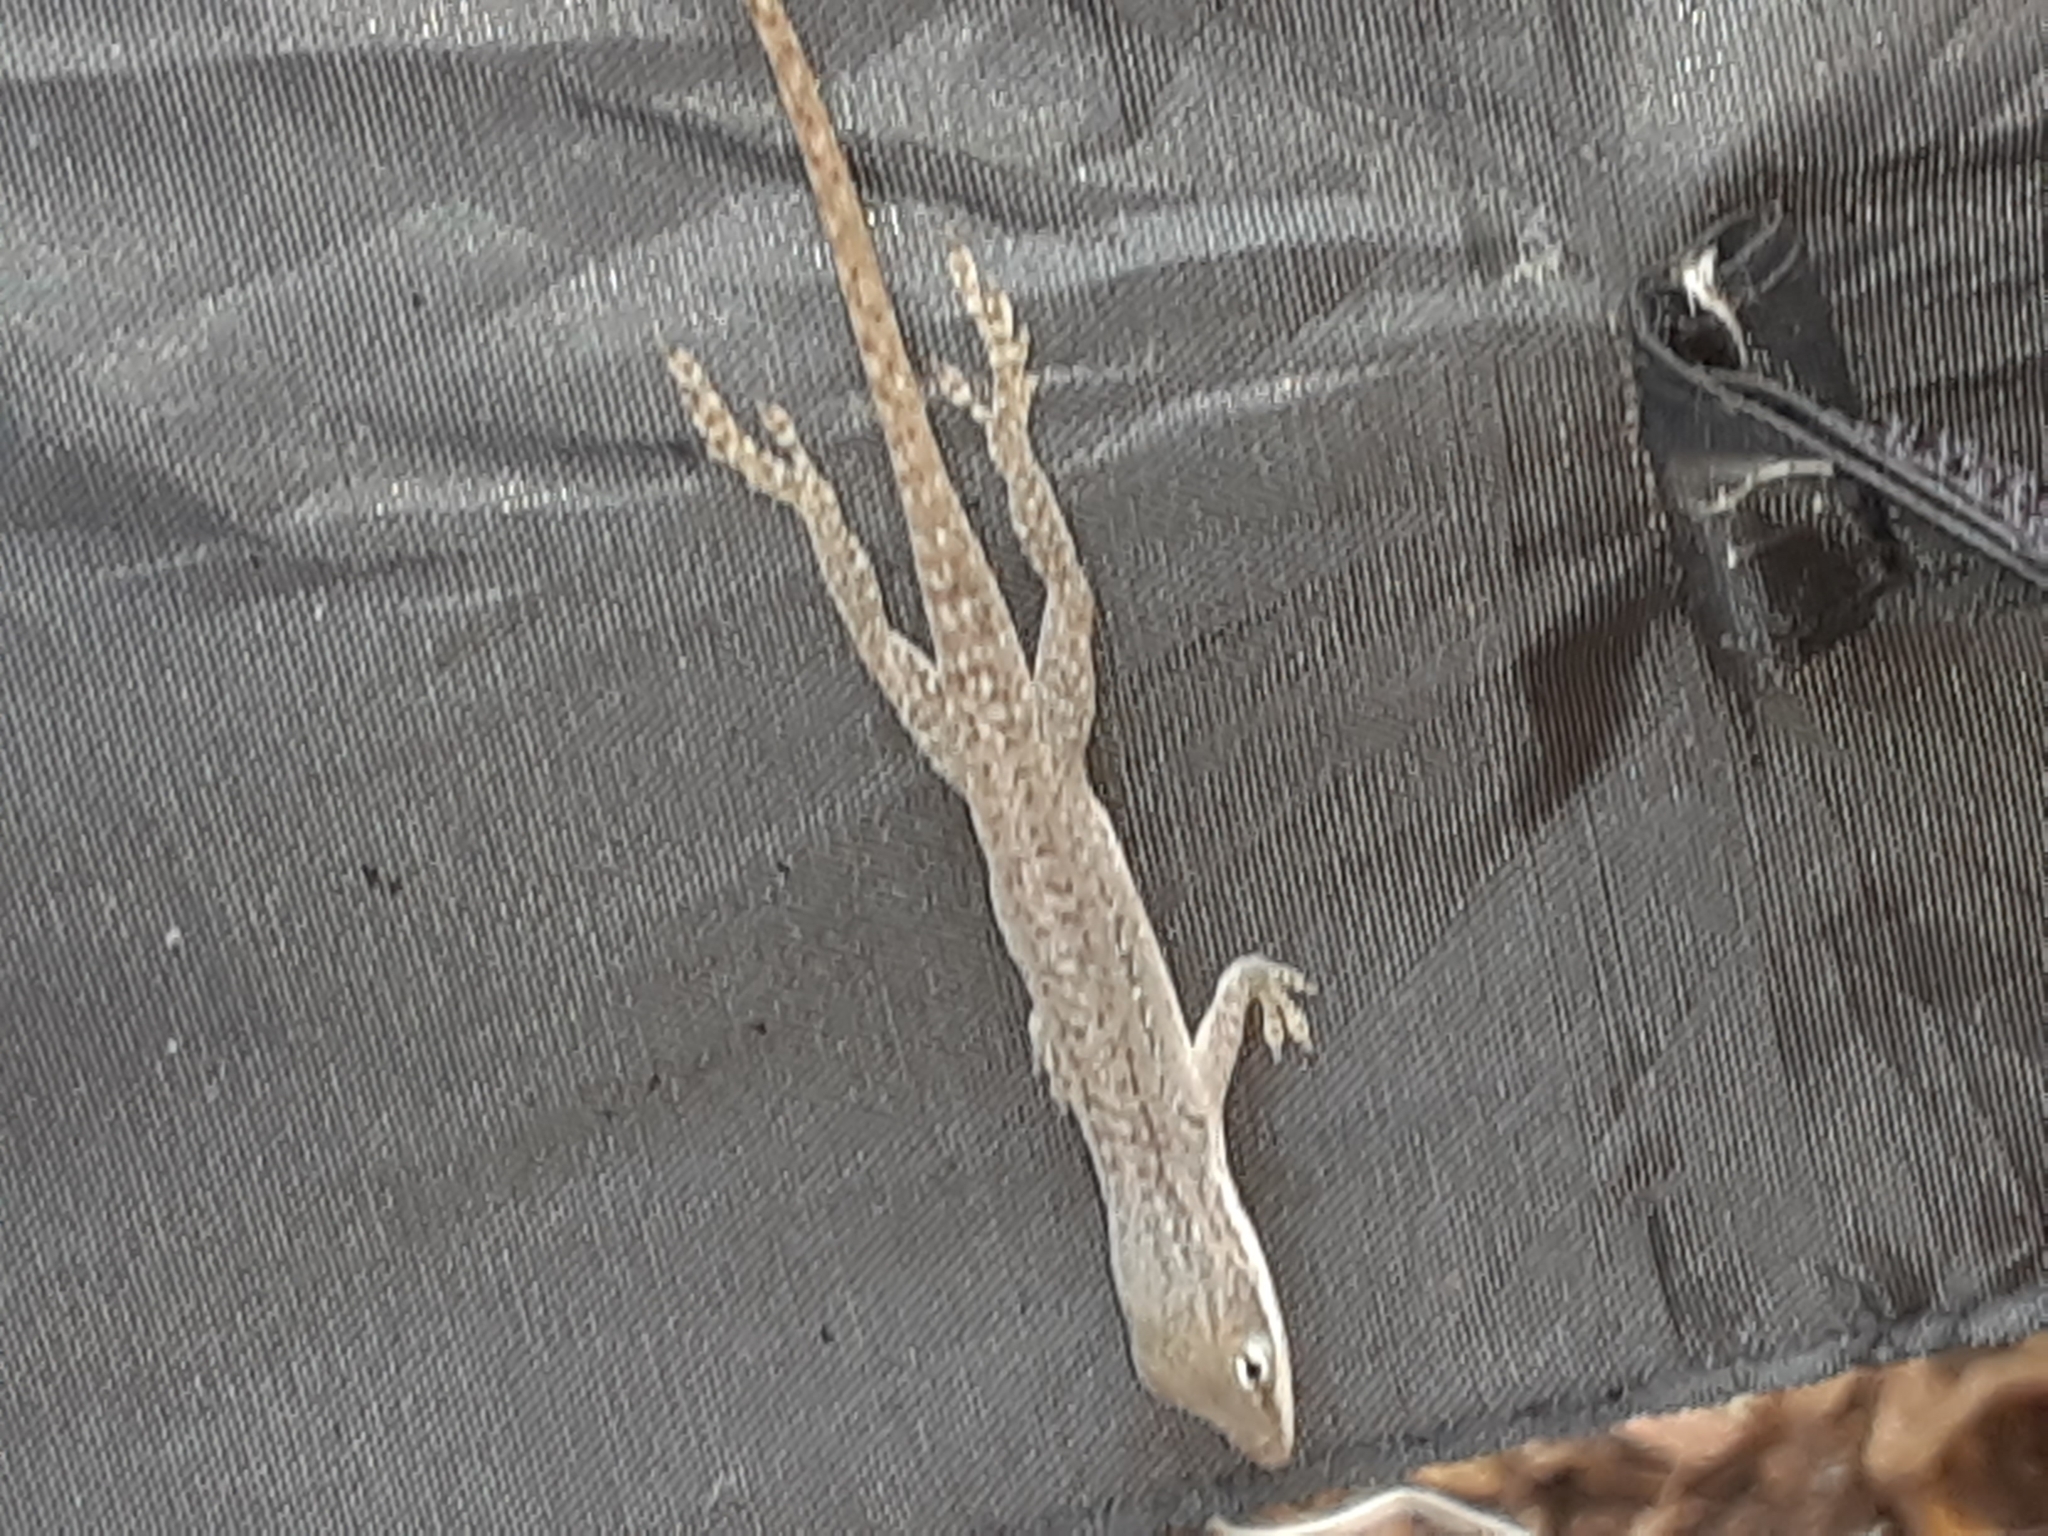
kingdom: Animalia
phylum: Chordata
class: Squamata
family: Dactyloidae
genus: Anolis
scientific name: Anolis carolinensis
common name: Green anole
